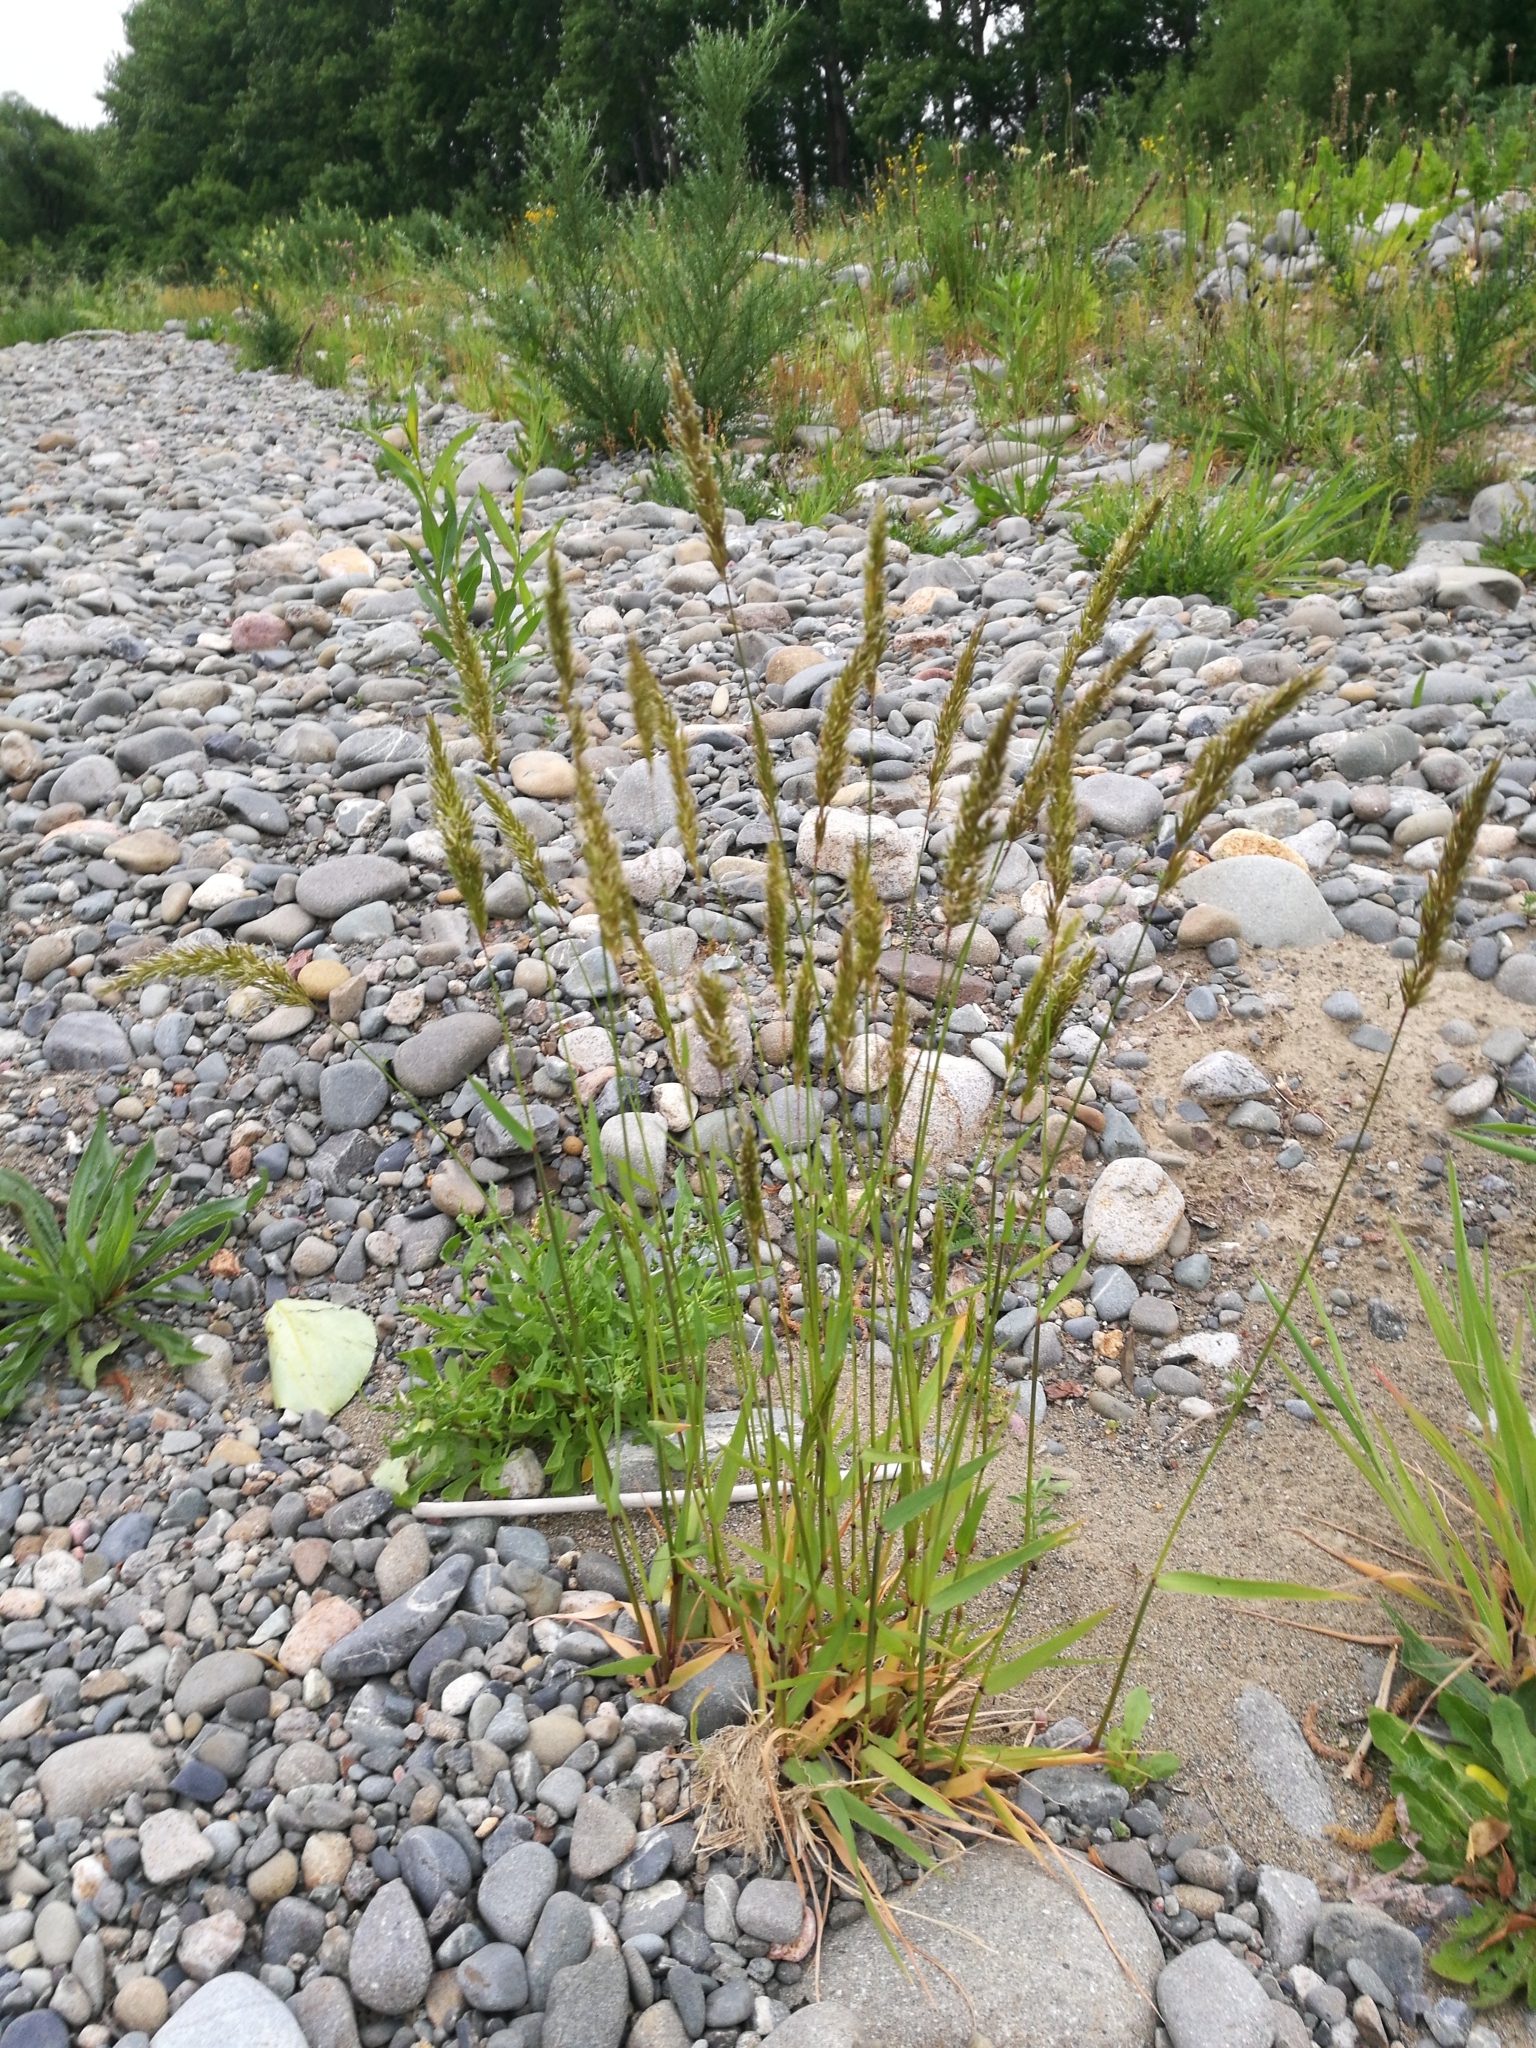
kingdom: Plantae
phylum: Tracheophyta
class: Liliopsida
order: Poales
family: Poaceae
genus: Anthoxanthum
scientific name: Anthoxanthum odoratum
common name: Sweet vernalgrass
